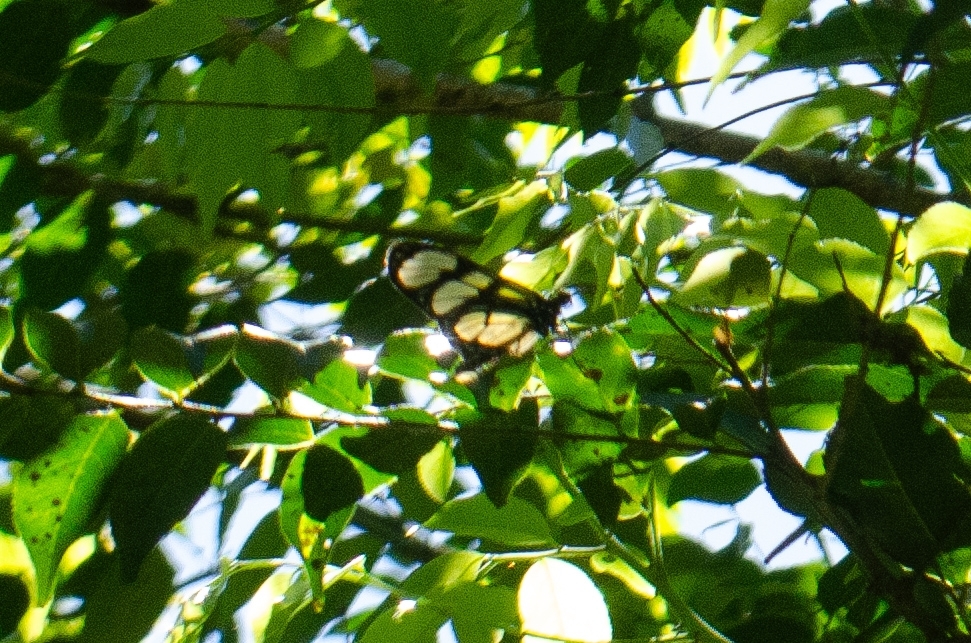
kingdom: Animalia
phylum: Arthropoda
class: Insecta
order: Lepidoptera
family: Nymphalidae
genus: Methona
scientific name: Methona themisto
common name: Themisto amberwing
